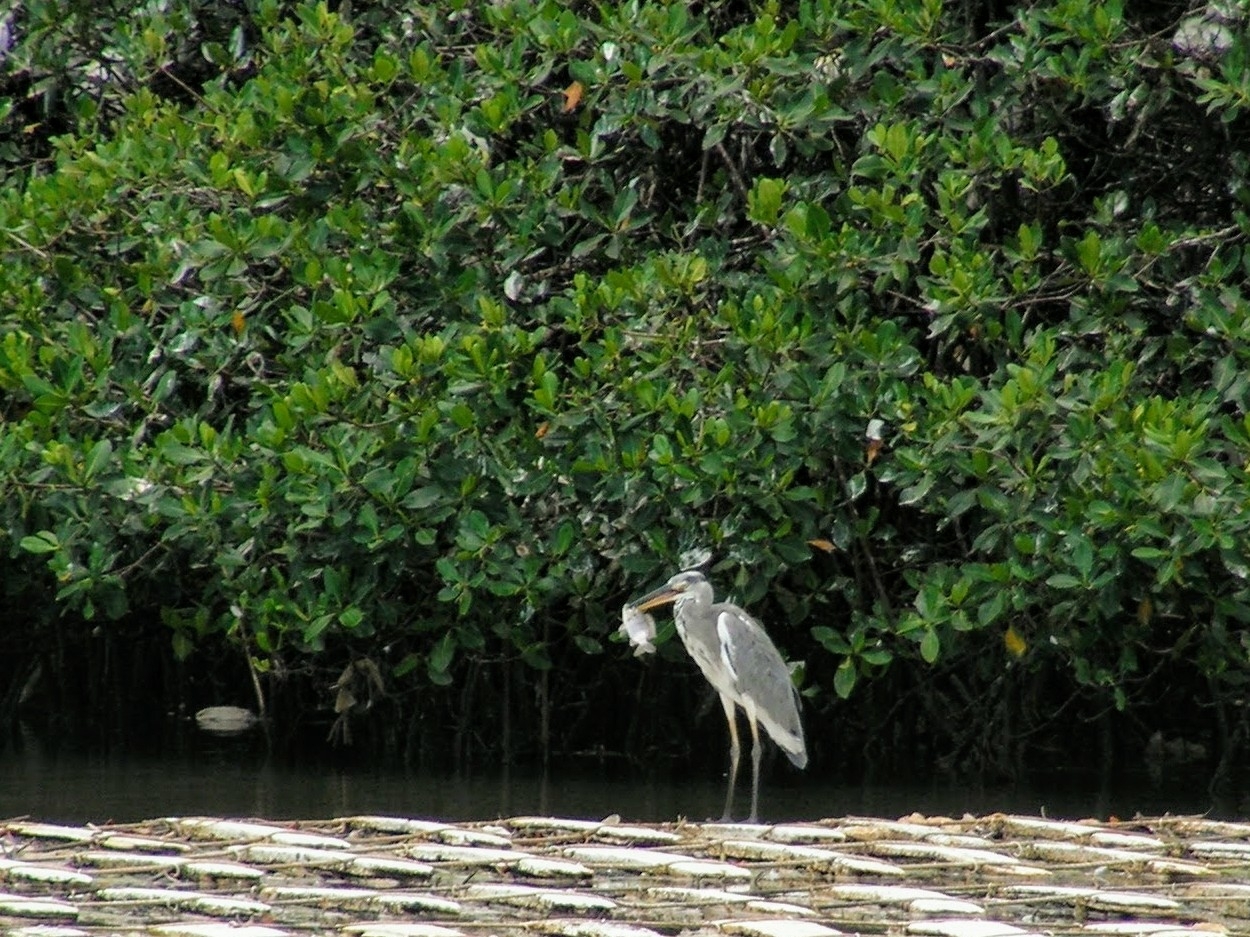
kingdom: Animalia
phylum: Chordata
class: Aves
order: Pelecaniformes
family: Ardeidae
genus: Ardea
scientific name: Ardea cinerea
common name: Grey heron
